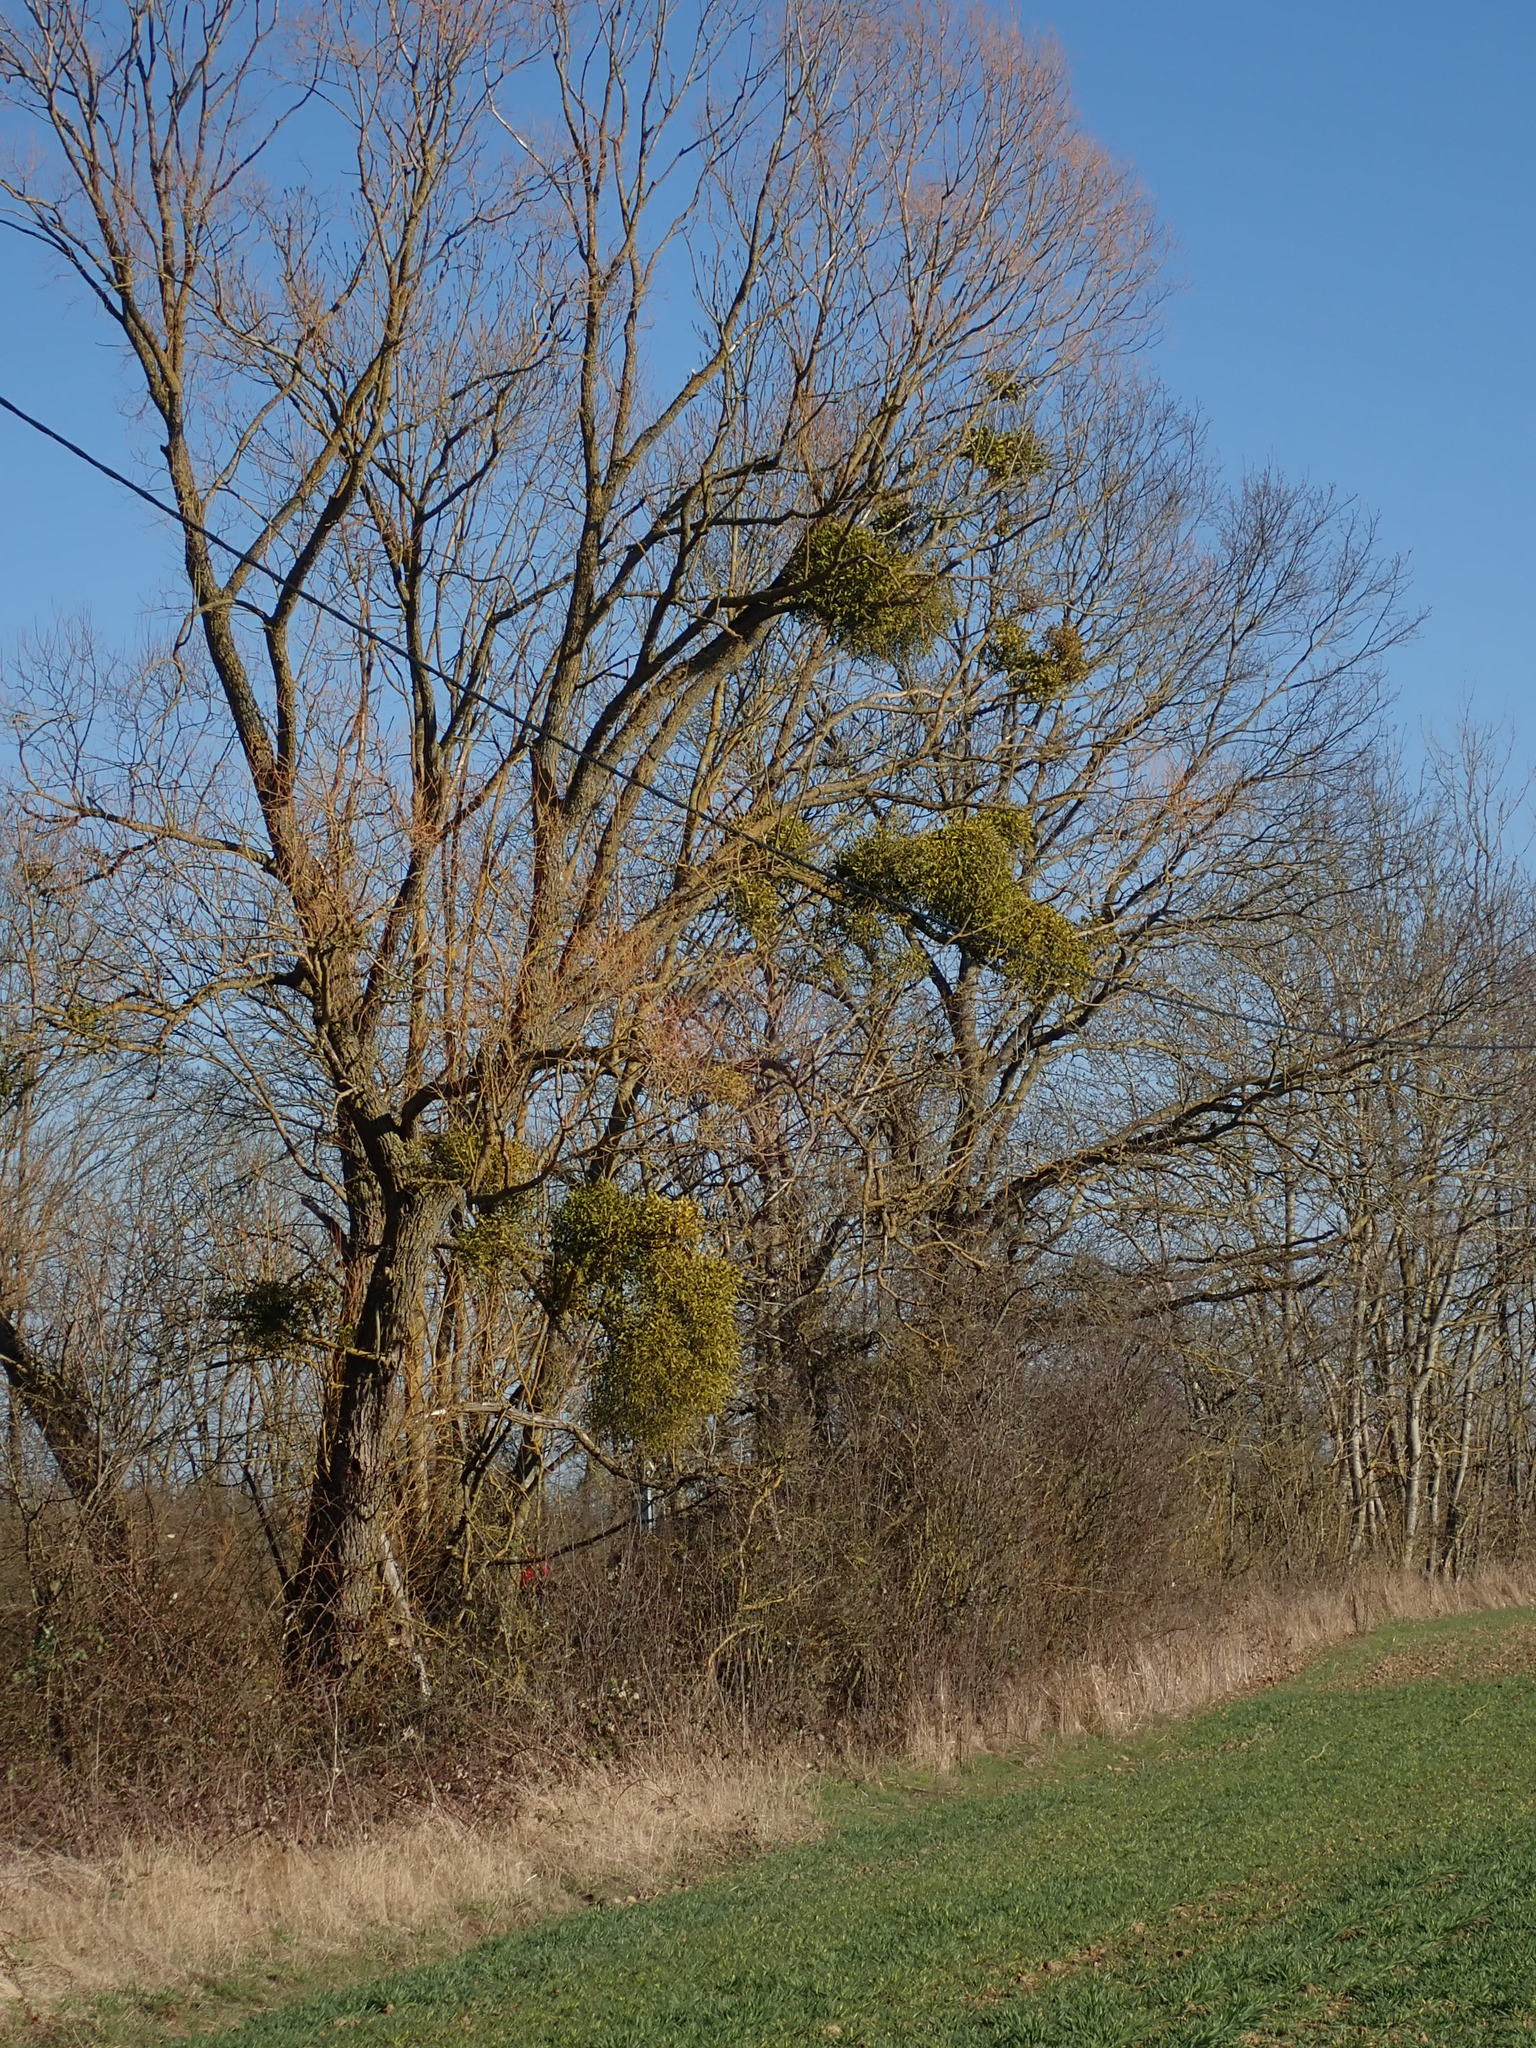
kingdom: Plantae
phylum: Tracheophyta
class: Magnoliopsida
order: Santalales
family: Viscaceae
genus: Viscum
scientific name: Viscum album
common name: Mistletoe
